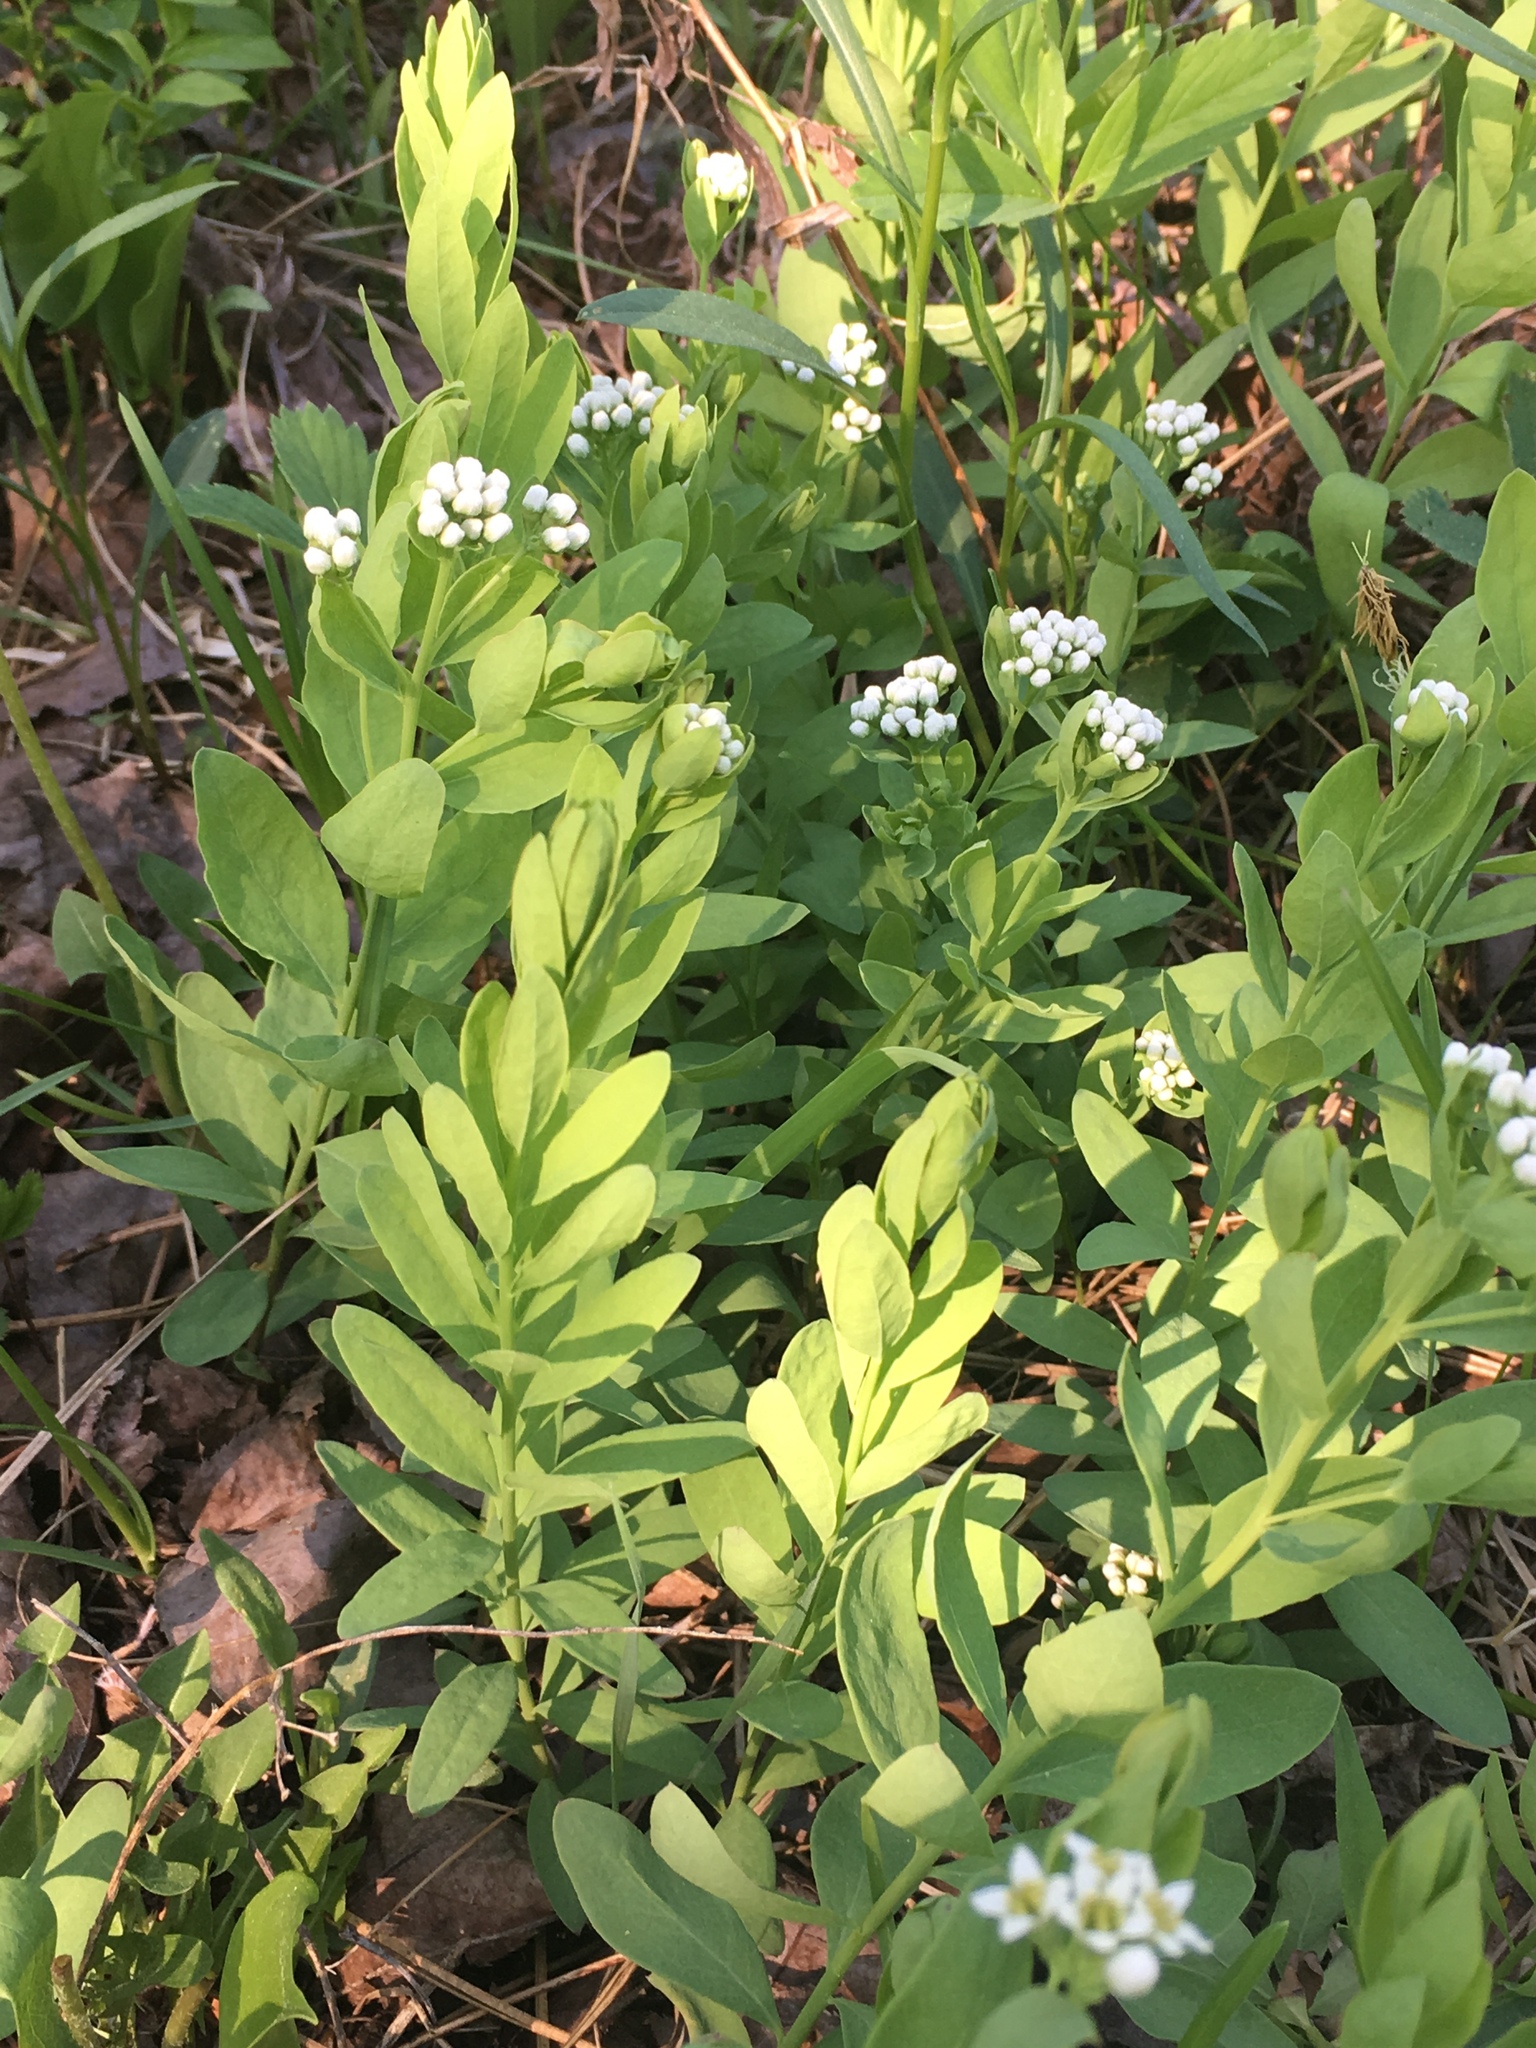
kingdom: Plantae
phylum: Tracheophyta
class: Magnoliopsida
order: Santalales
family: Comandraceae
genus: Comandra
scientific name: Comandra umbellata
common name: Bastard toadflax
